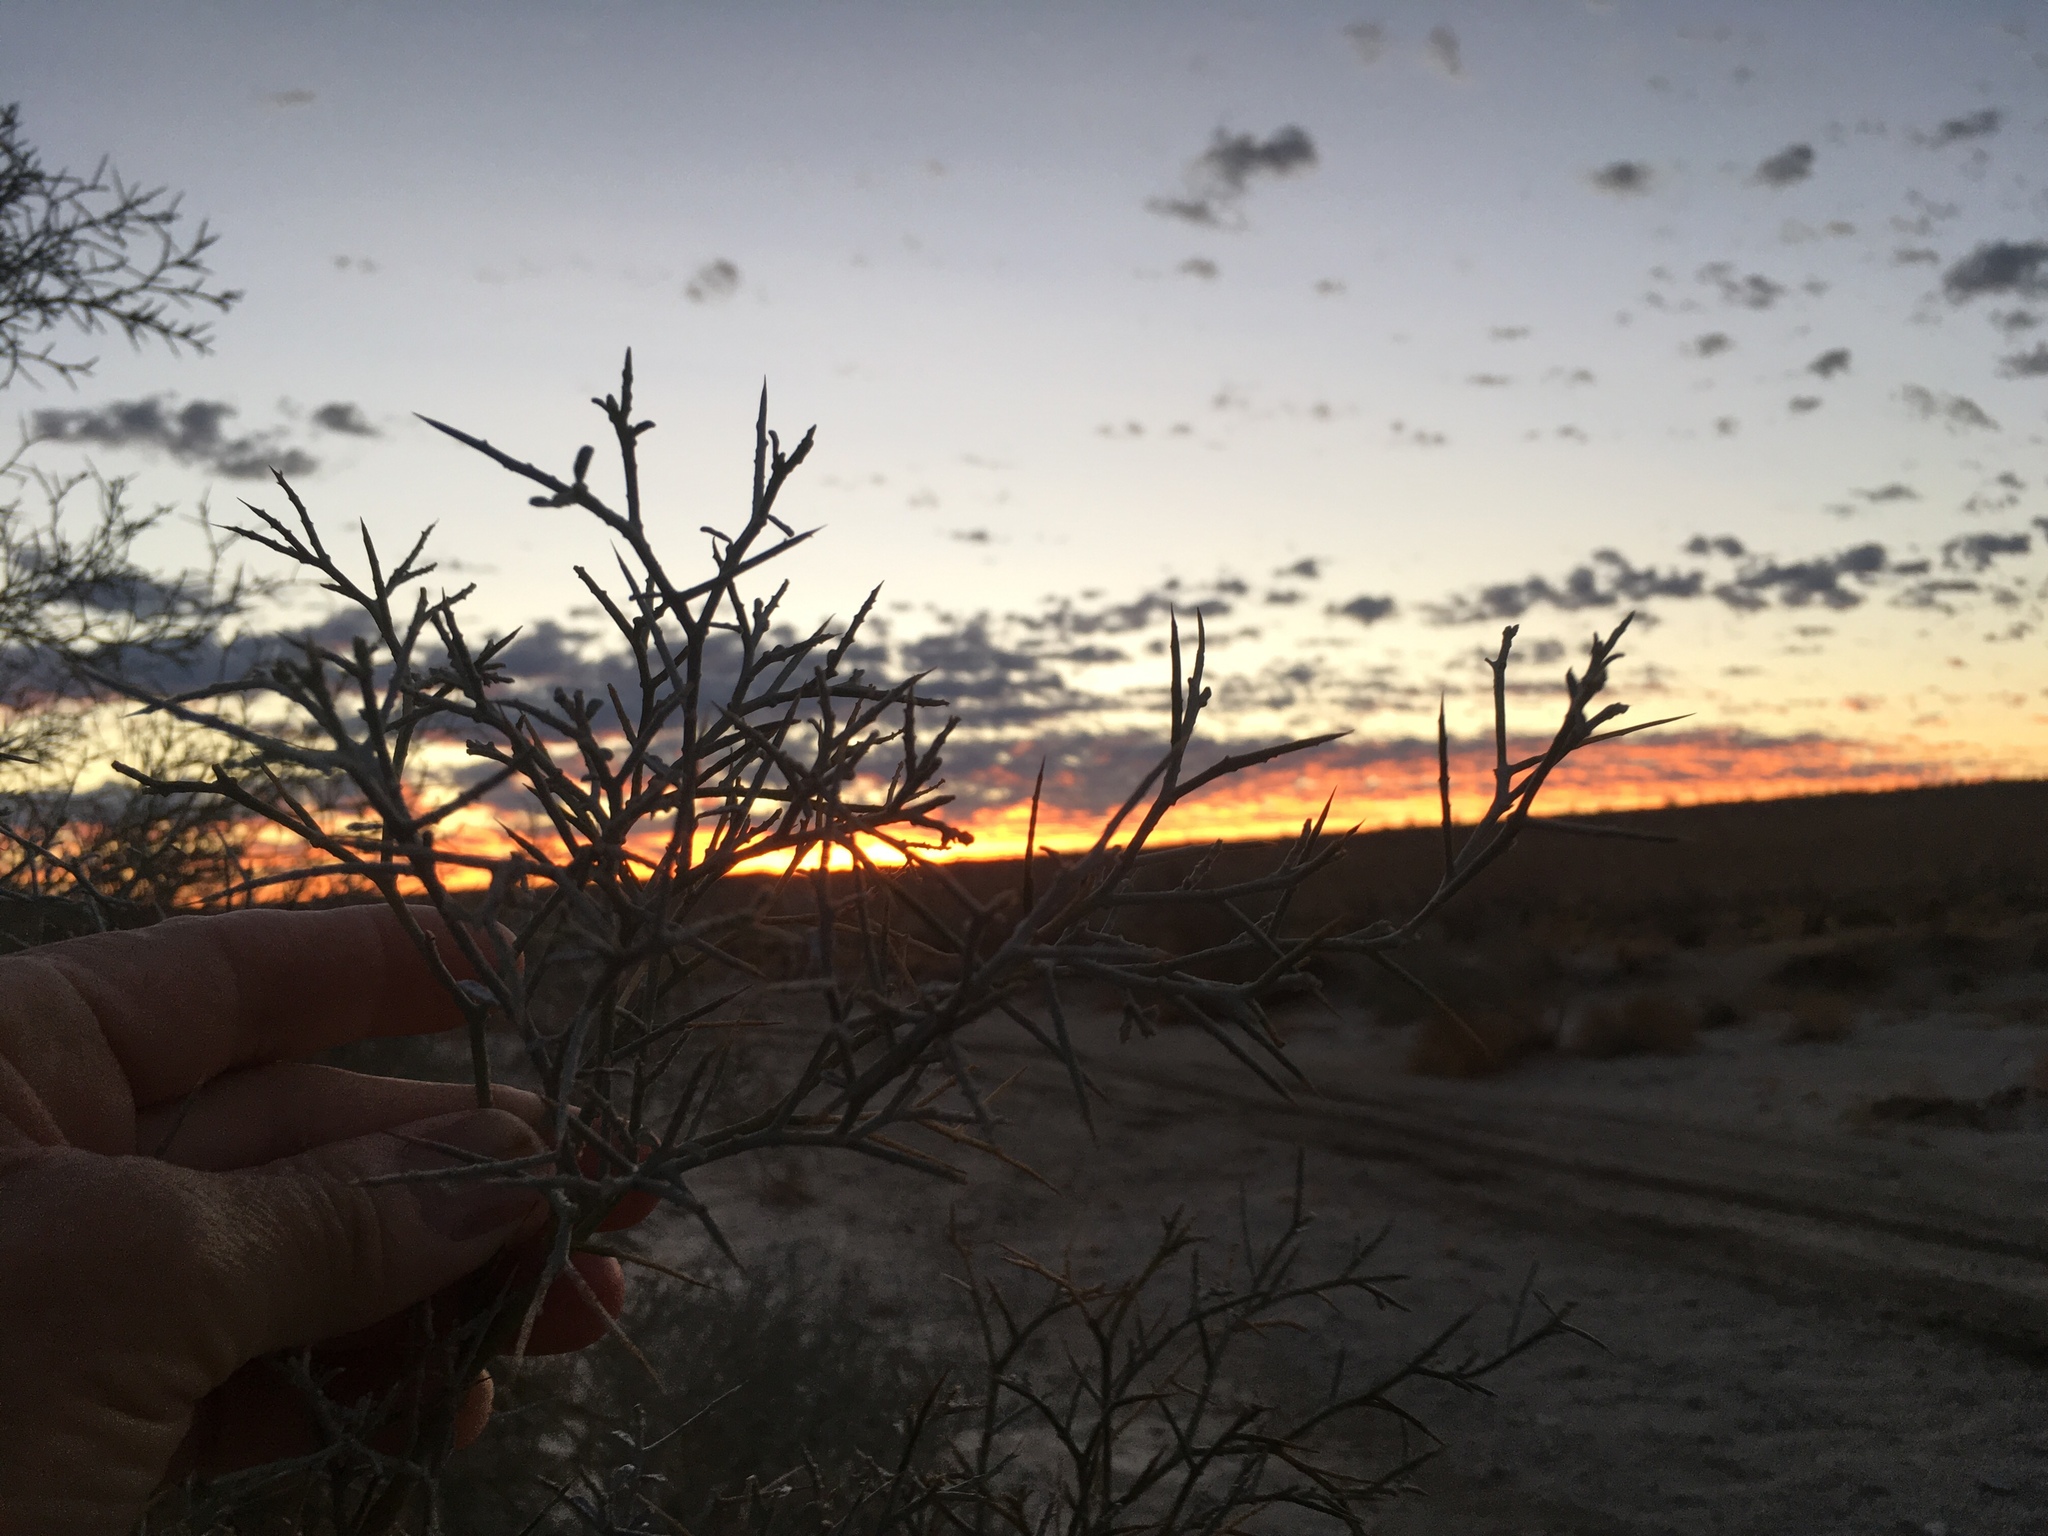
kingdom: Plantae
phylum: Tracheophyta
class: Magnoliopsida
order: Fabales
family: Fabaceae
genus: Psorothamnus
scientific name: Psorothamnus spinosus
